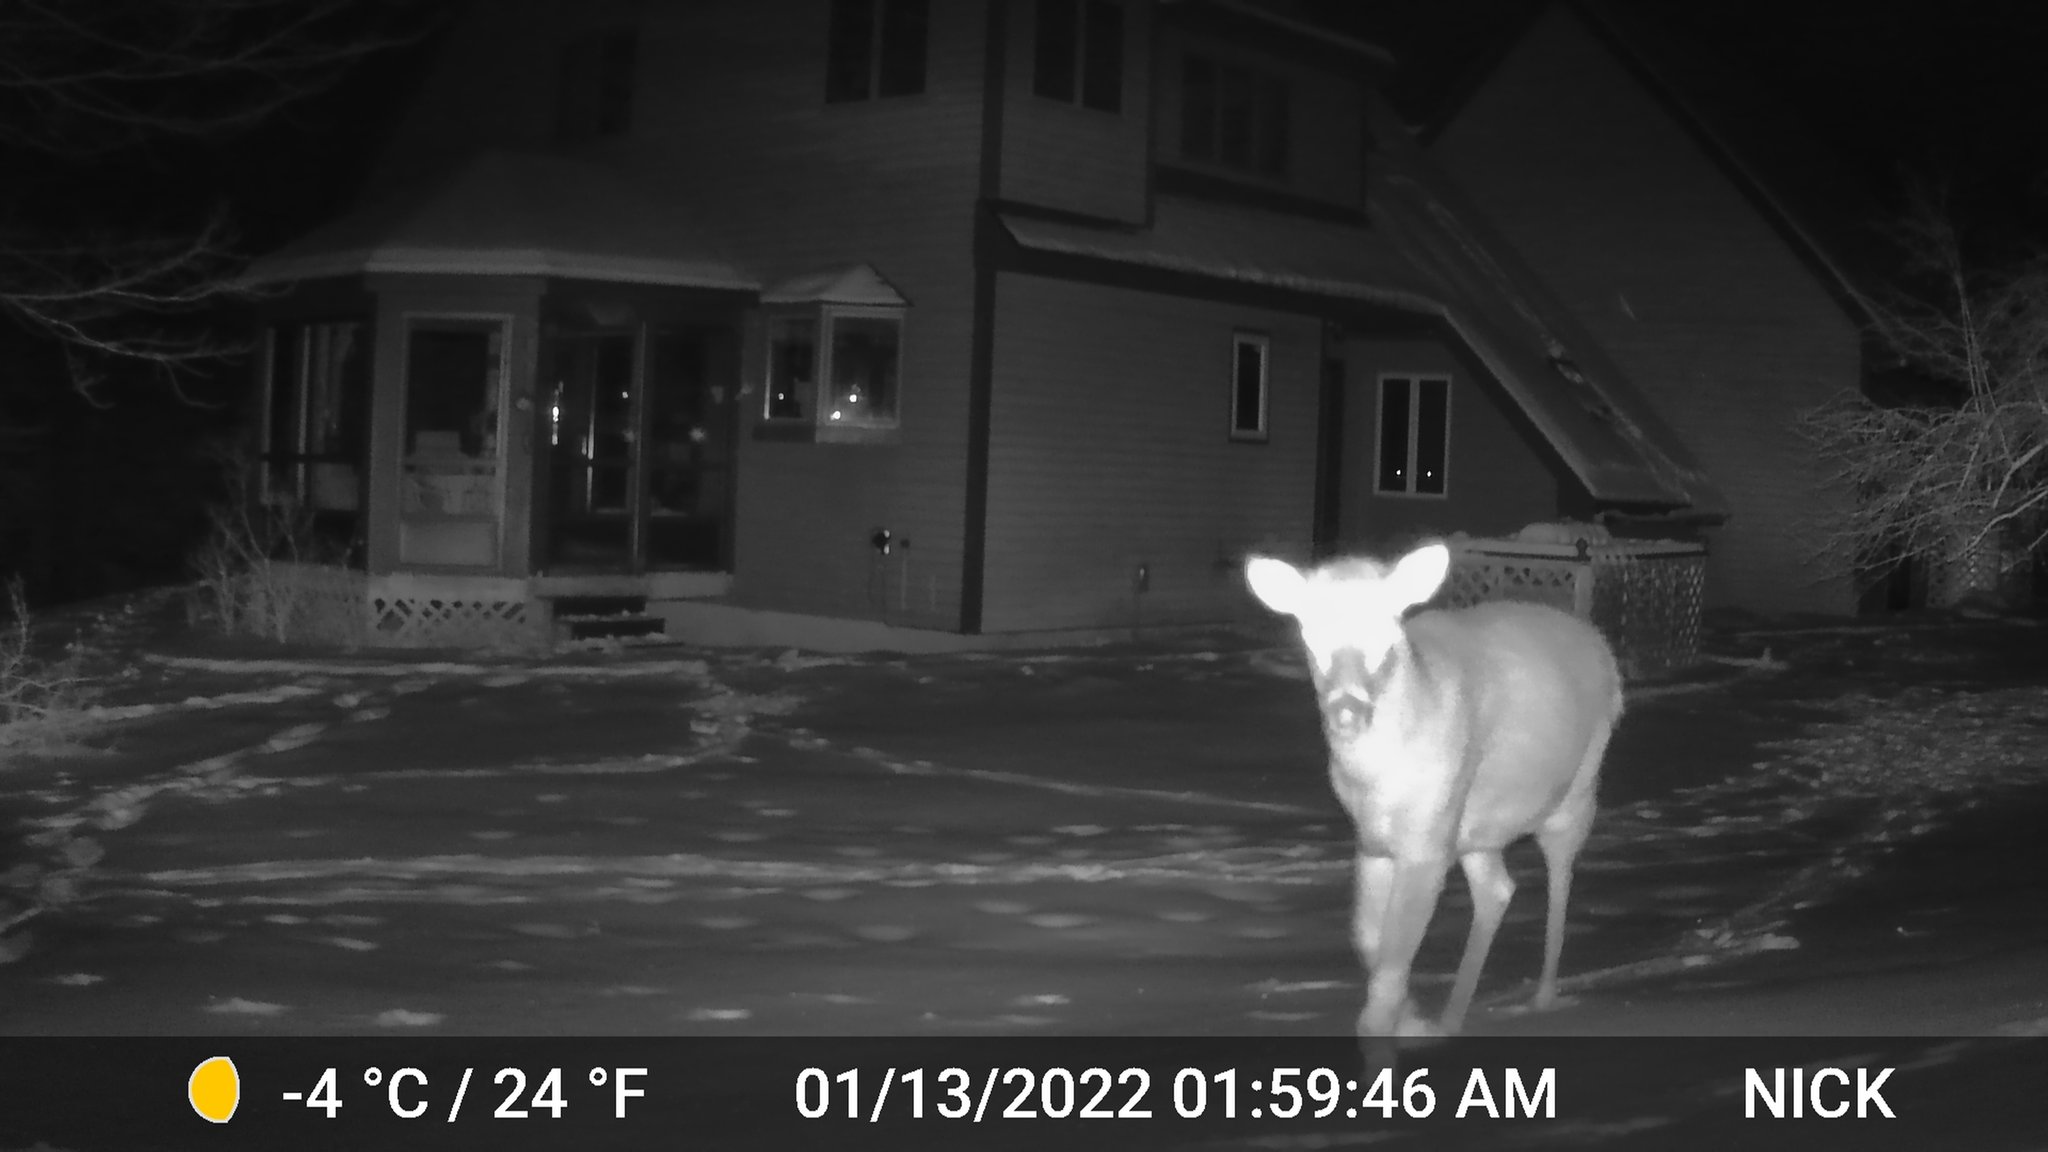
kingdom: Animalia
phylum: Chordata
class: Mammalia
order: Artiodactyla
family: Cervidae
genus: Odocoileus
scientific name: Odocoileus virginianus
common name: White-tailed deer
